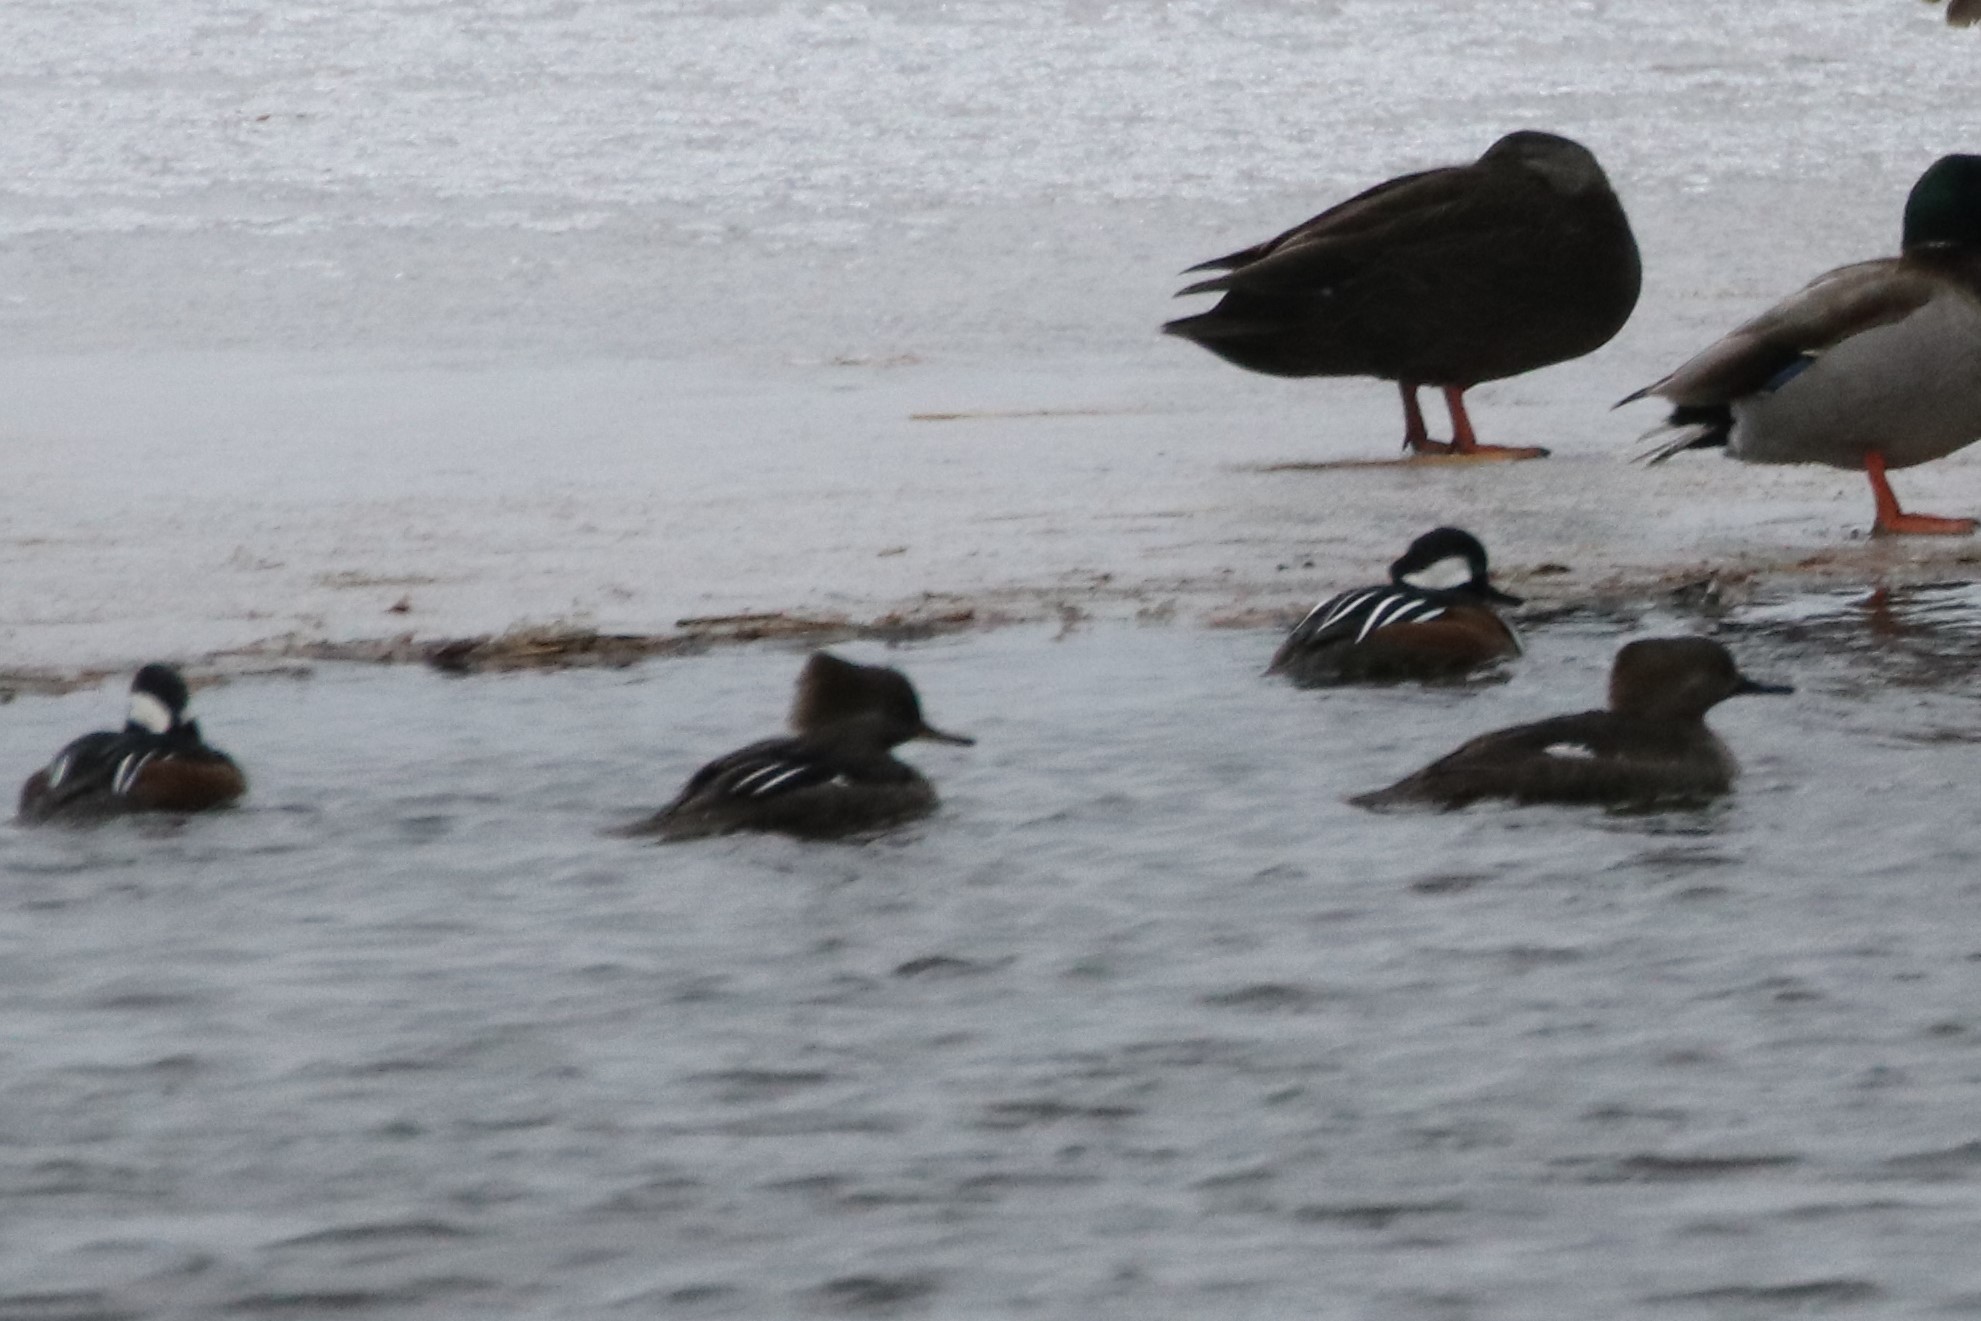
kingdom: Animalia
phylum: Chordata
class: Aves
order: Anseriformes
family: Anatidae
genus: Lophodytes
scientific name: Lophodytes cucullatus
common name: Hooded merganser
